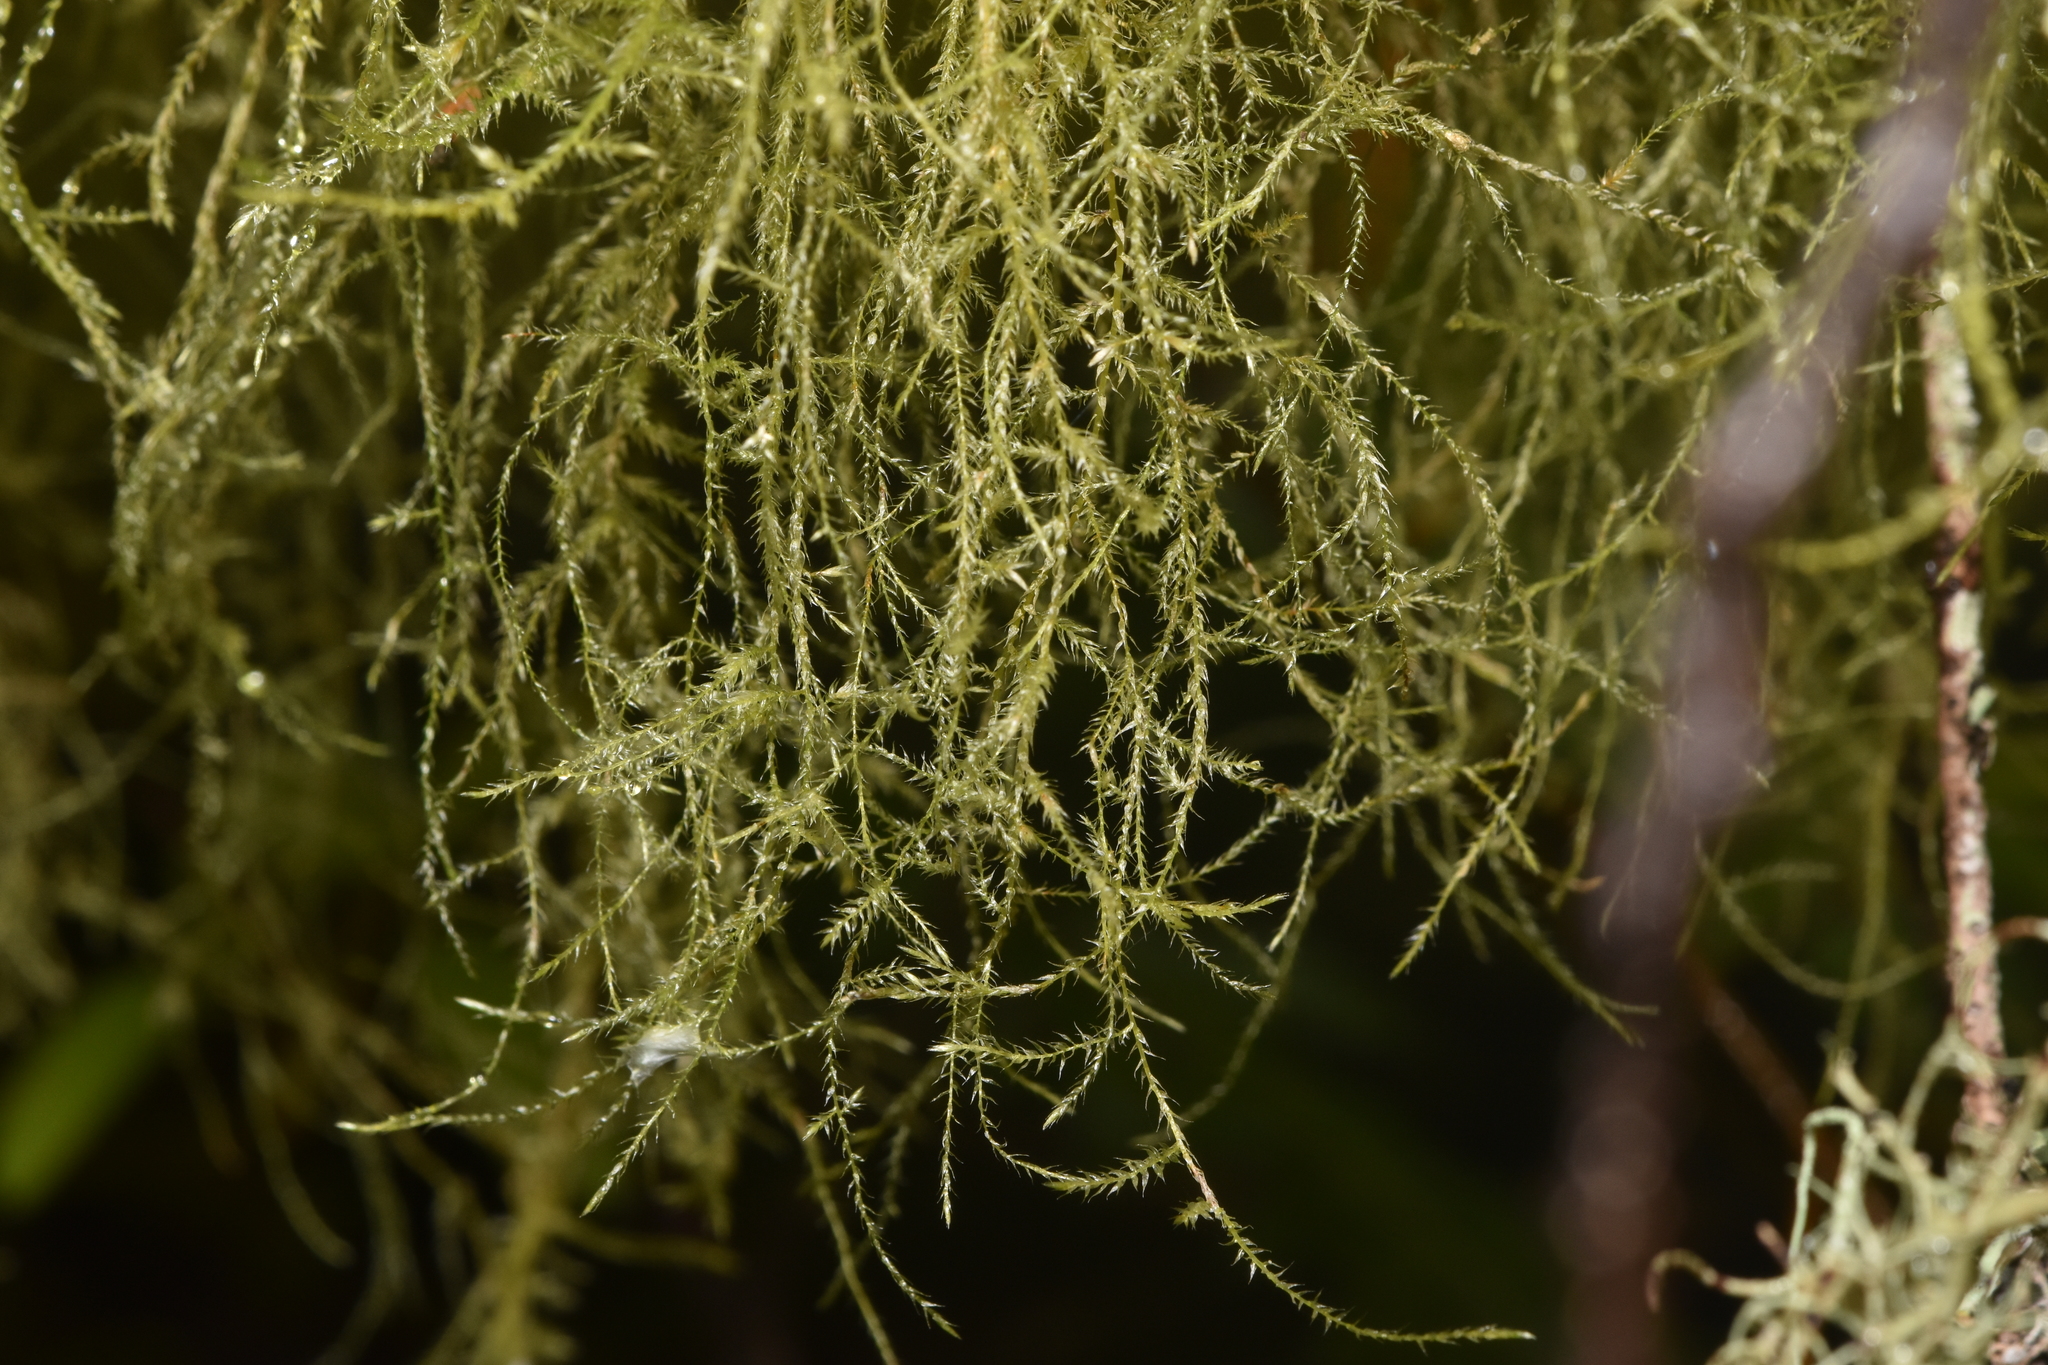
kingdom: Plantae
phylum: Bryophyta
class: Bryopsida
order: Hypnales
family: Lembophyllaceae
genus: Pseudisothecium
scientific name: Pseudisothecium stoloniferum
